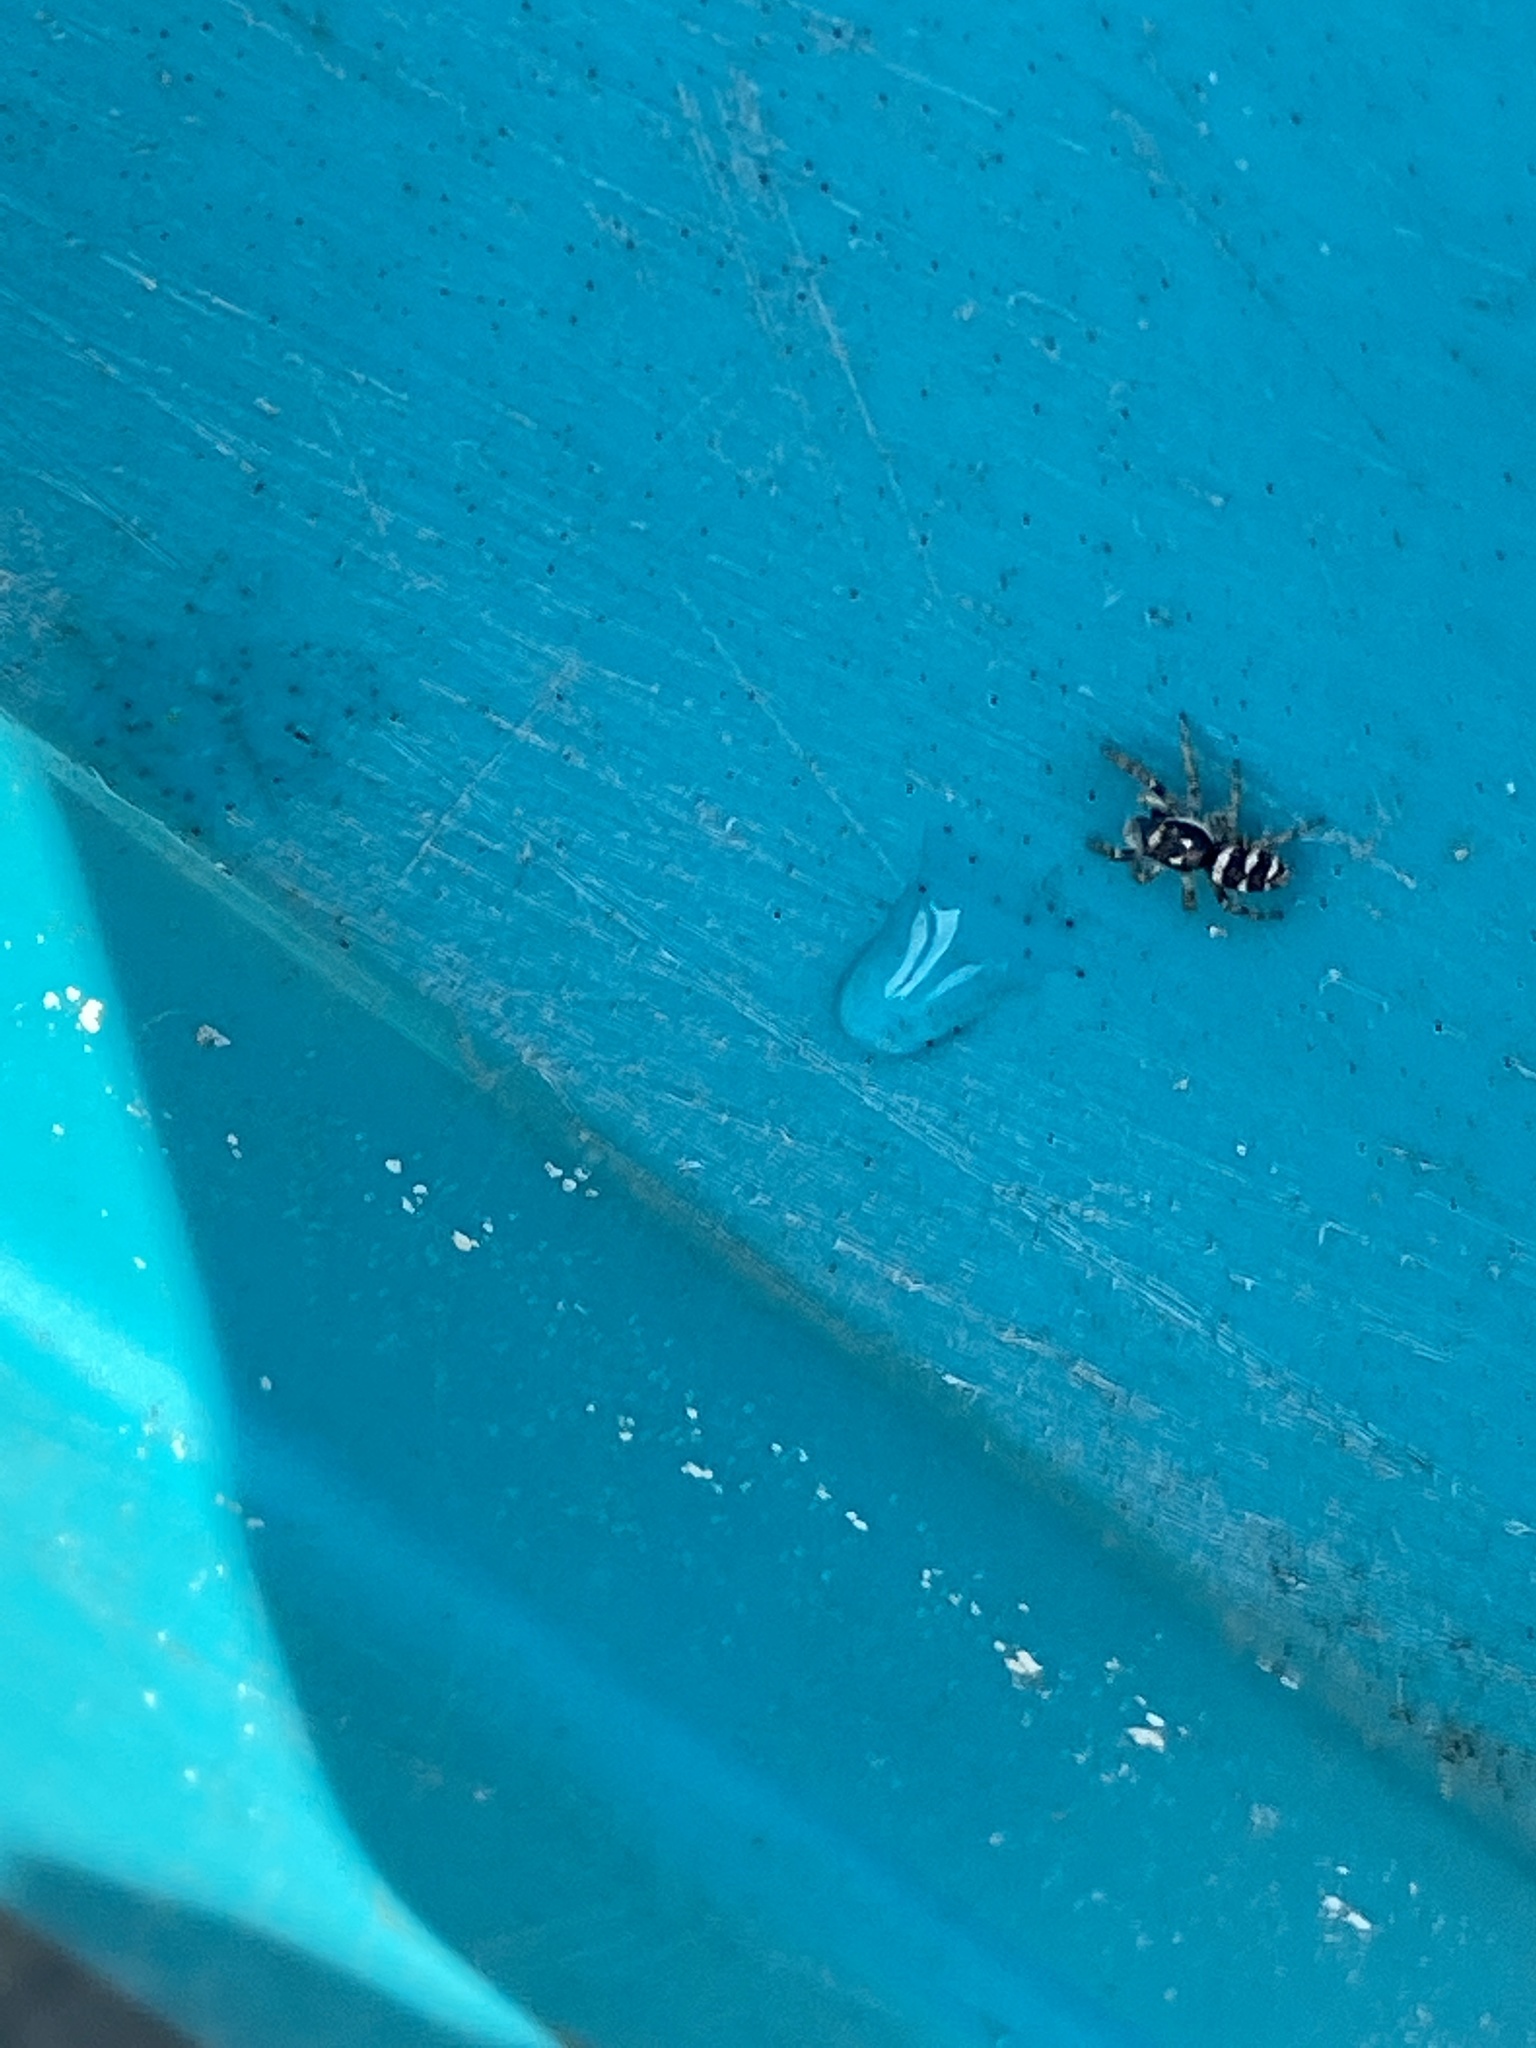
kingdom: Animalia
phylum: Arthropoda
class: Arachnida
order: Araneae
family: Salticidae
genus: Salticus
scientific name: Salticus scenicus
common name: Zebra jumper
